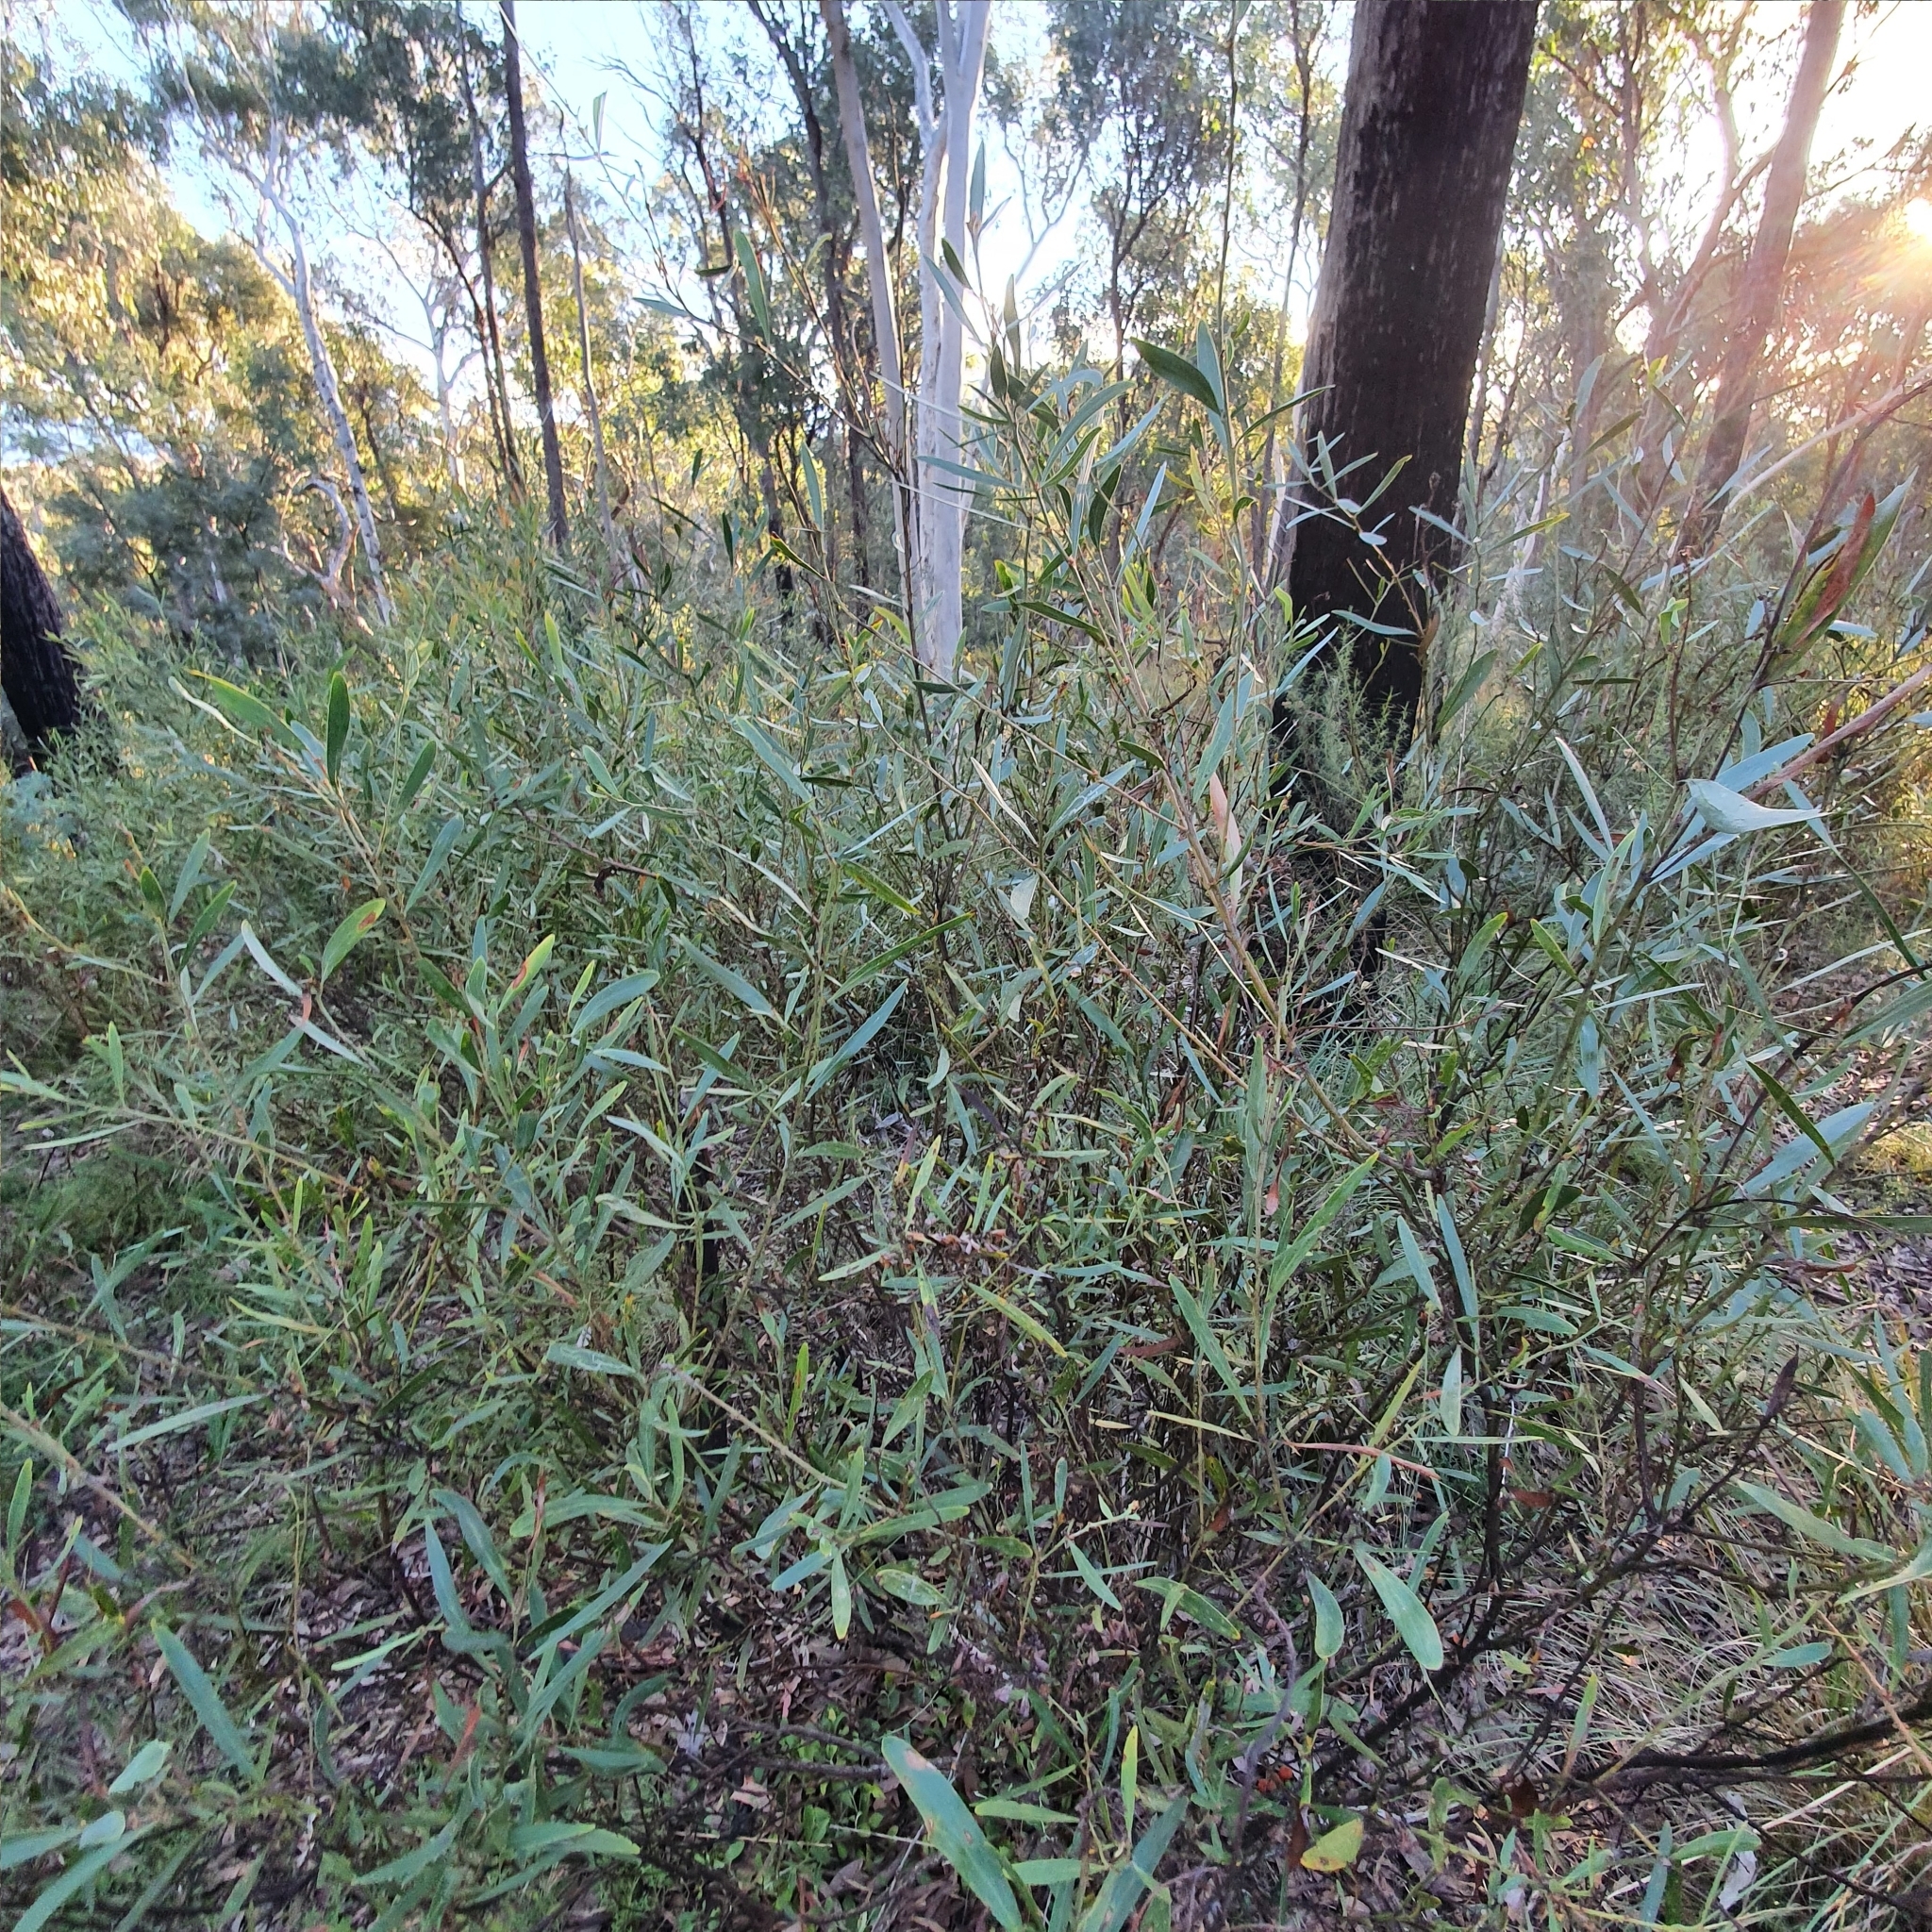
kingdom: Plantae
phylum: Tracheophyta
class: Magnoliopsida
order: Fabales
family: Fabaceae
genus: Daviesia
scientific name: Daviesia mimosoides
